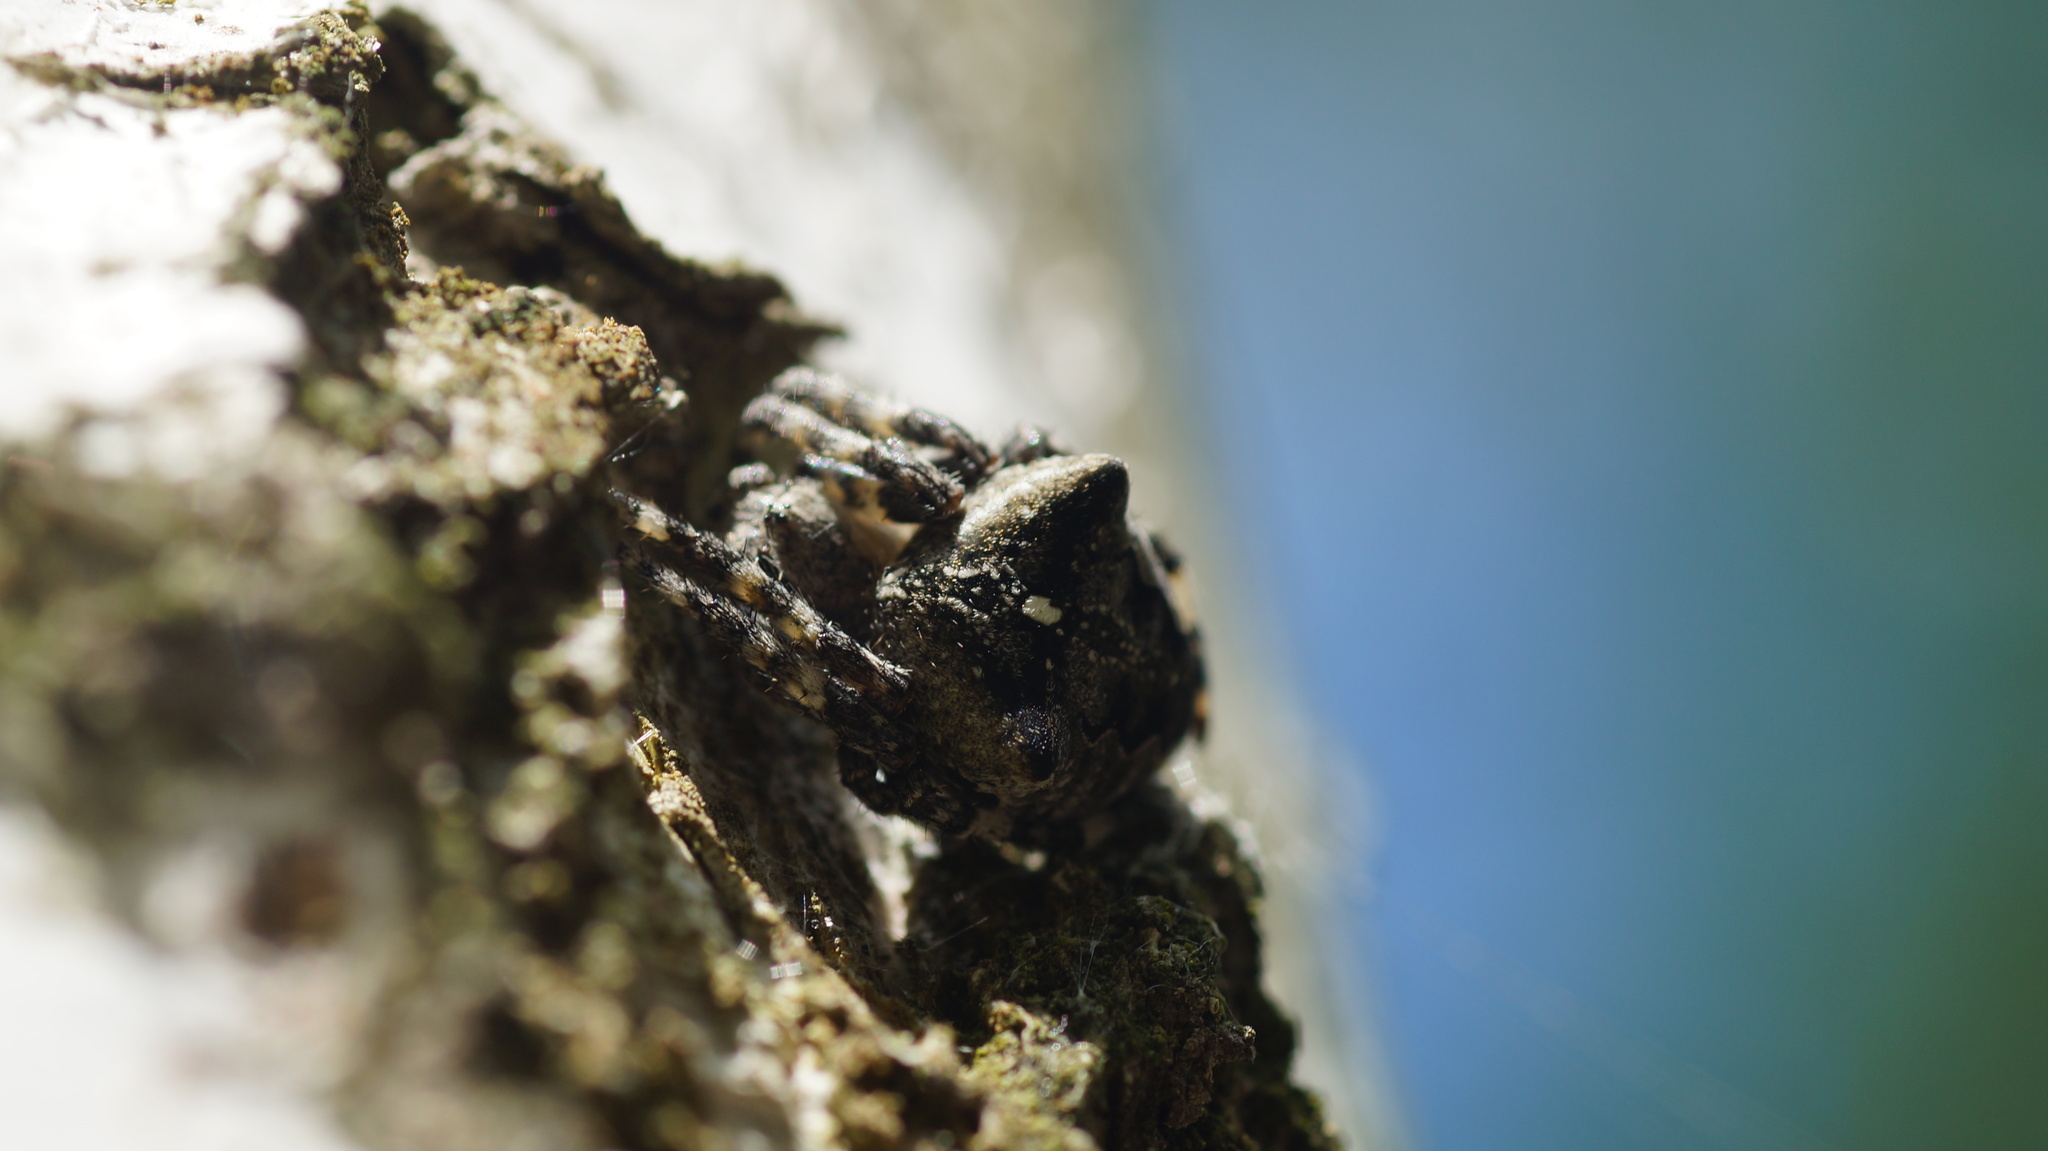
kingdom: Animalia
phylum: Arthropoda
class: Arachnida
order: Araneae
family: Araneidae
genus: Araneus
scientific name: Araneus angulatus
